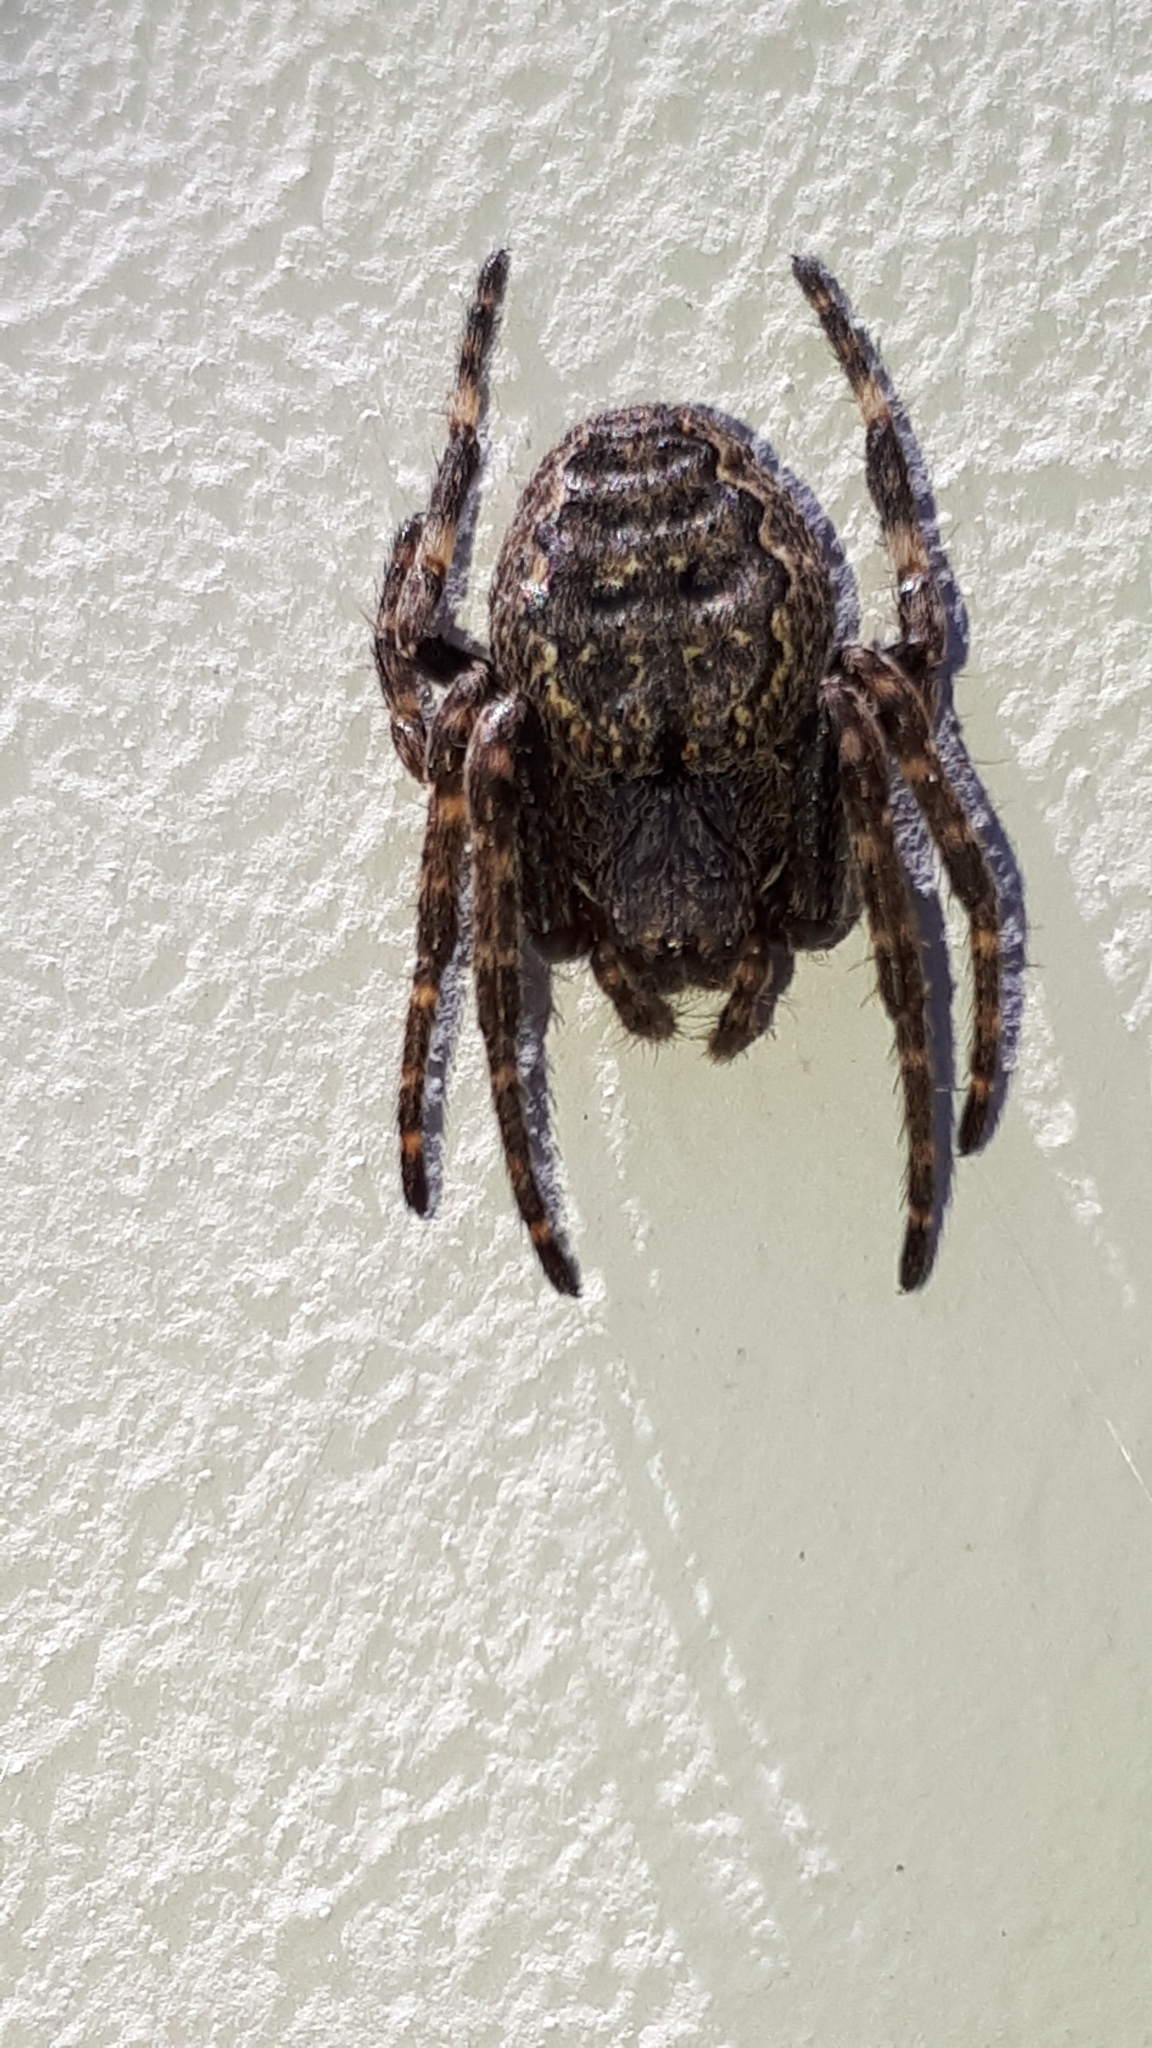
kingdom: Animalia
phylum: Arthropoda
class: Arachnida
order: Araneae
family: Araneidae
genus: Nuctenea
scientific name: Nuctenea umbratica
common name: Toad spider
